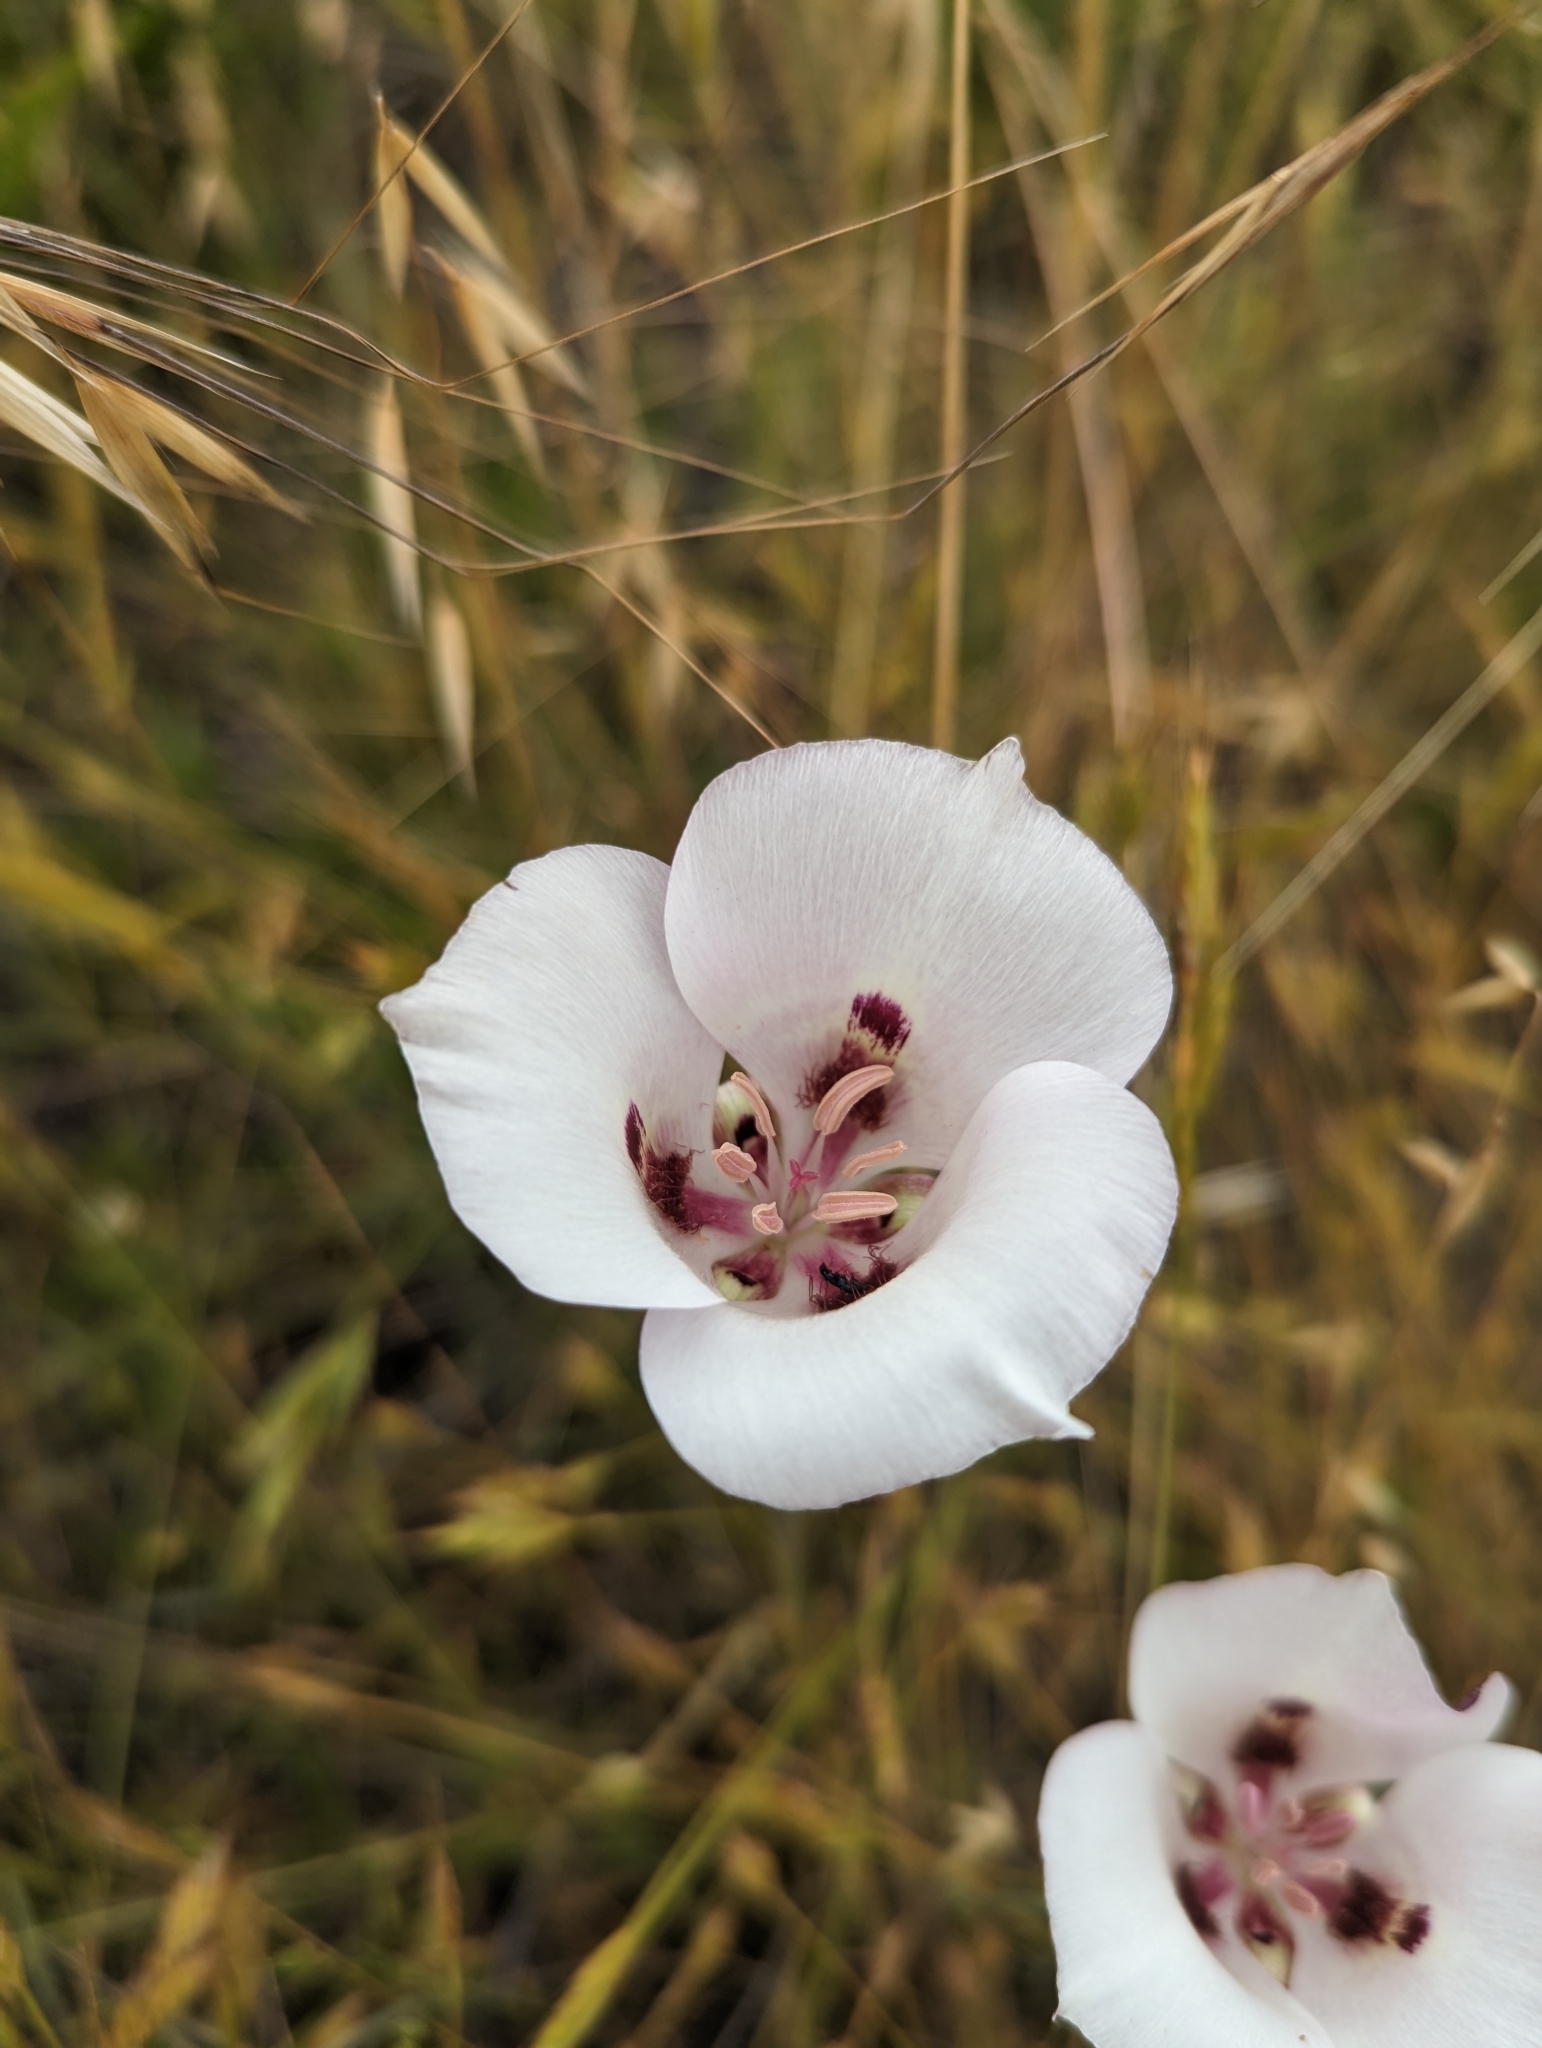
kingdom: Plantae
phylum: Tracheophyta
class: Liliopsida
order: Liliales
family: Liliaceae
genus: Calochortus
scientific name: Calochortus argillosus
